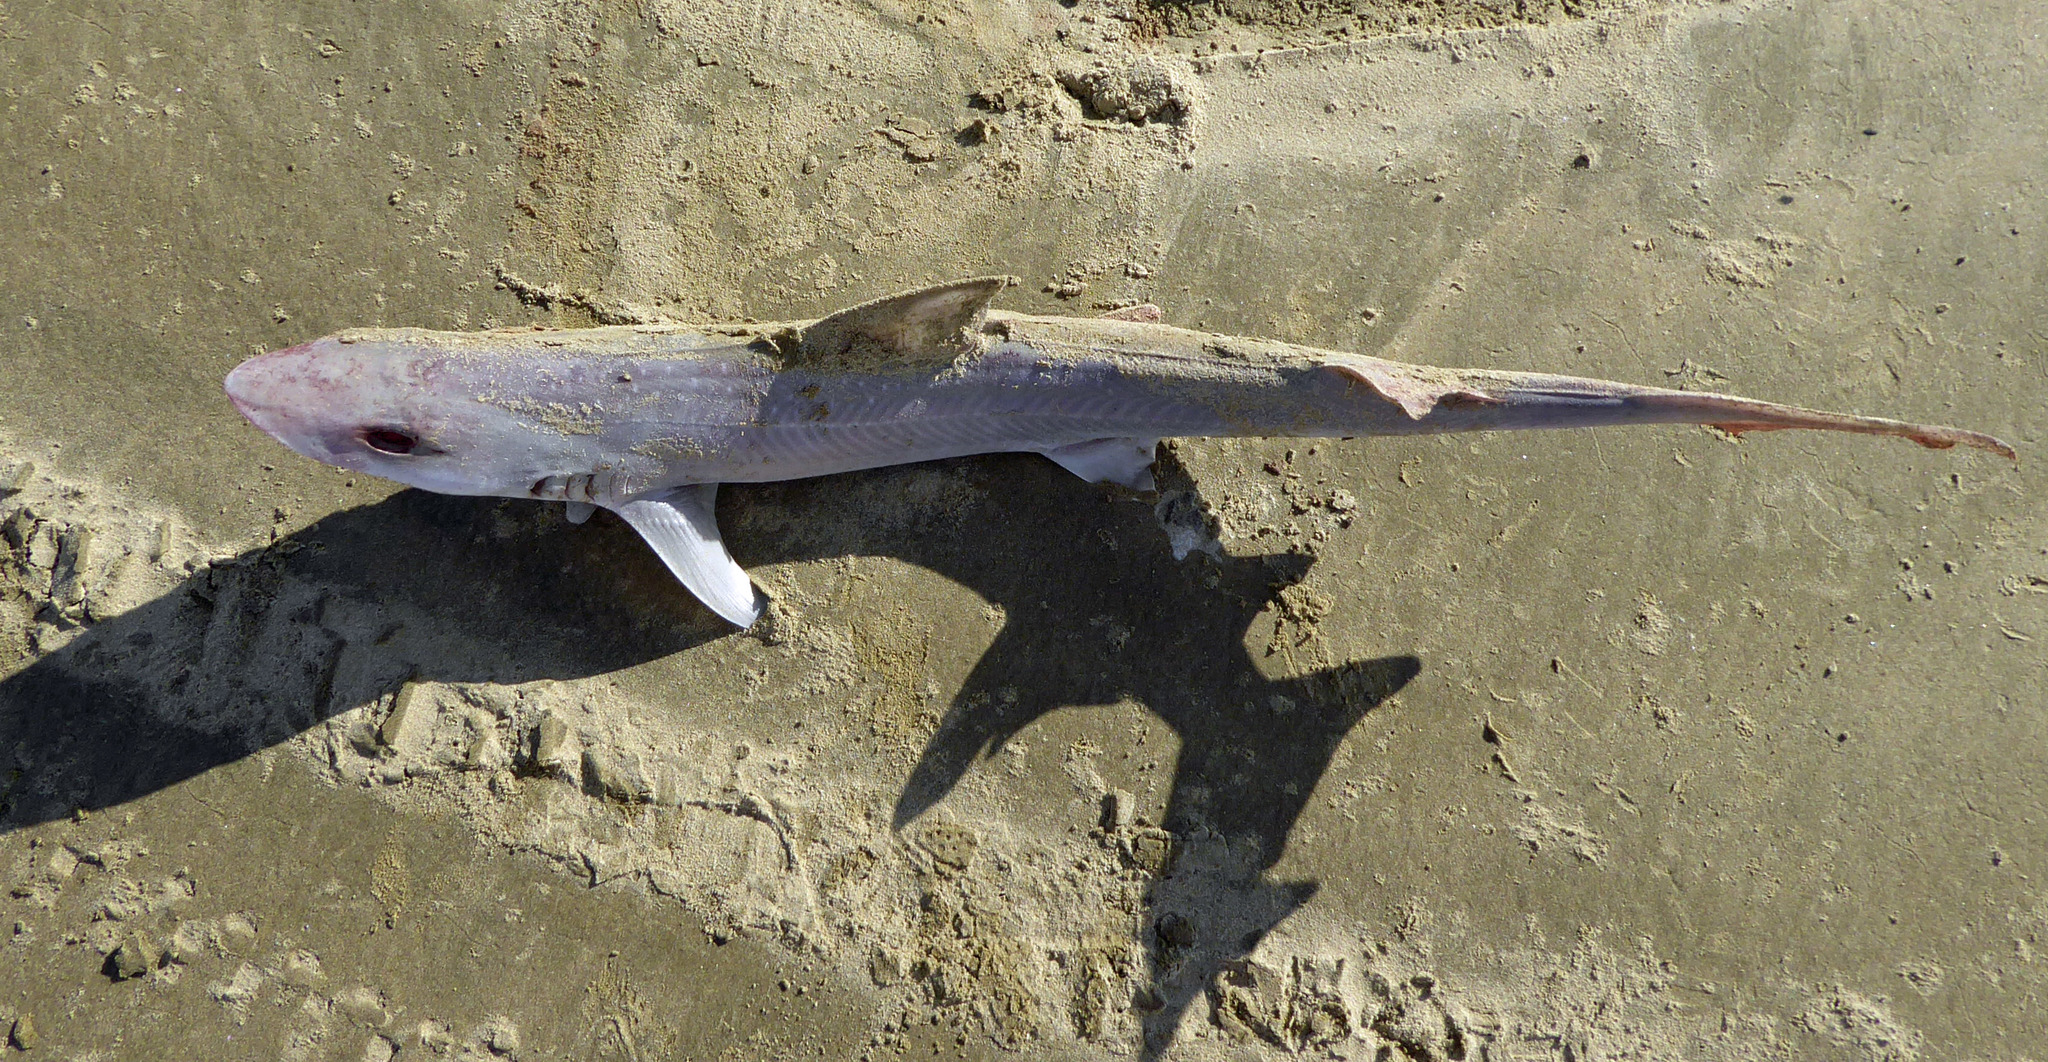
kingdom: Animalia
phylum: Chordata
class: Elasmobranchii
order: Carcharhiniformes
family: Triakidae
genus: Mustelus
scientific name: Mustelus lenticulatus
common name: Gummy shark
